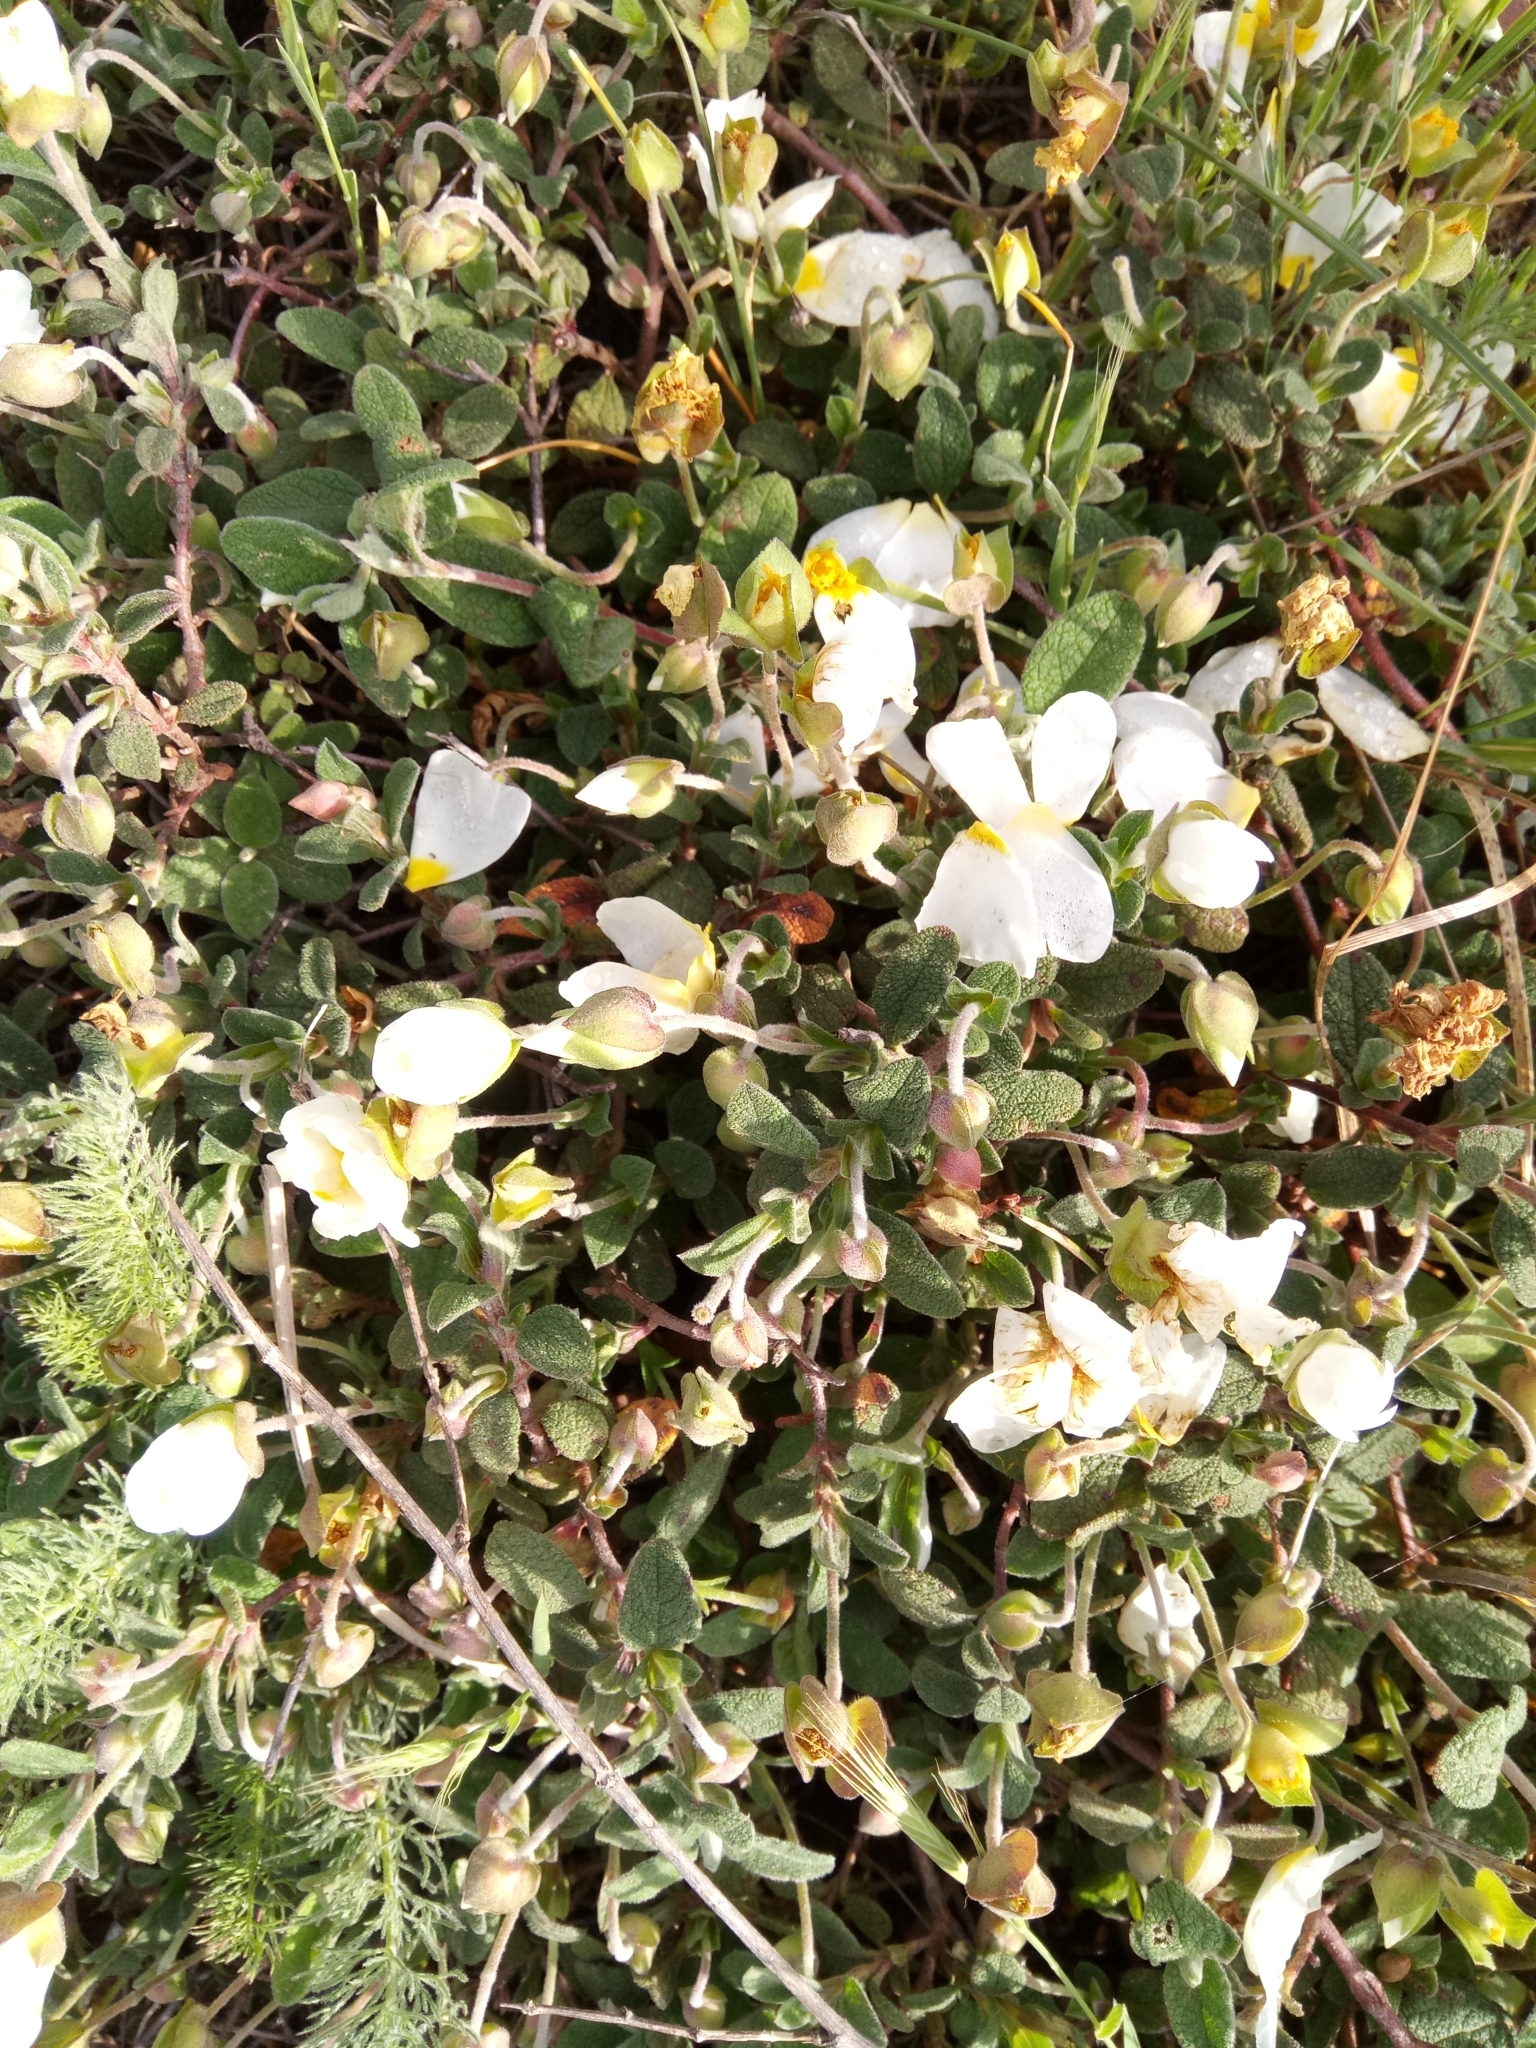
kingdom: Plantae
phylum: Tracheophyta
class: Magnoliopsida
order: Malvales
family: Cistaceae
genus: Cistus
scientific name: Cistus salviifolius
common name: Salvia cistus
